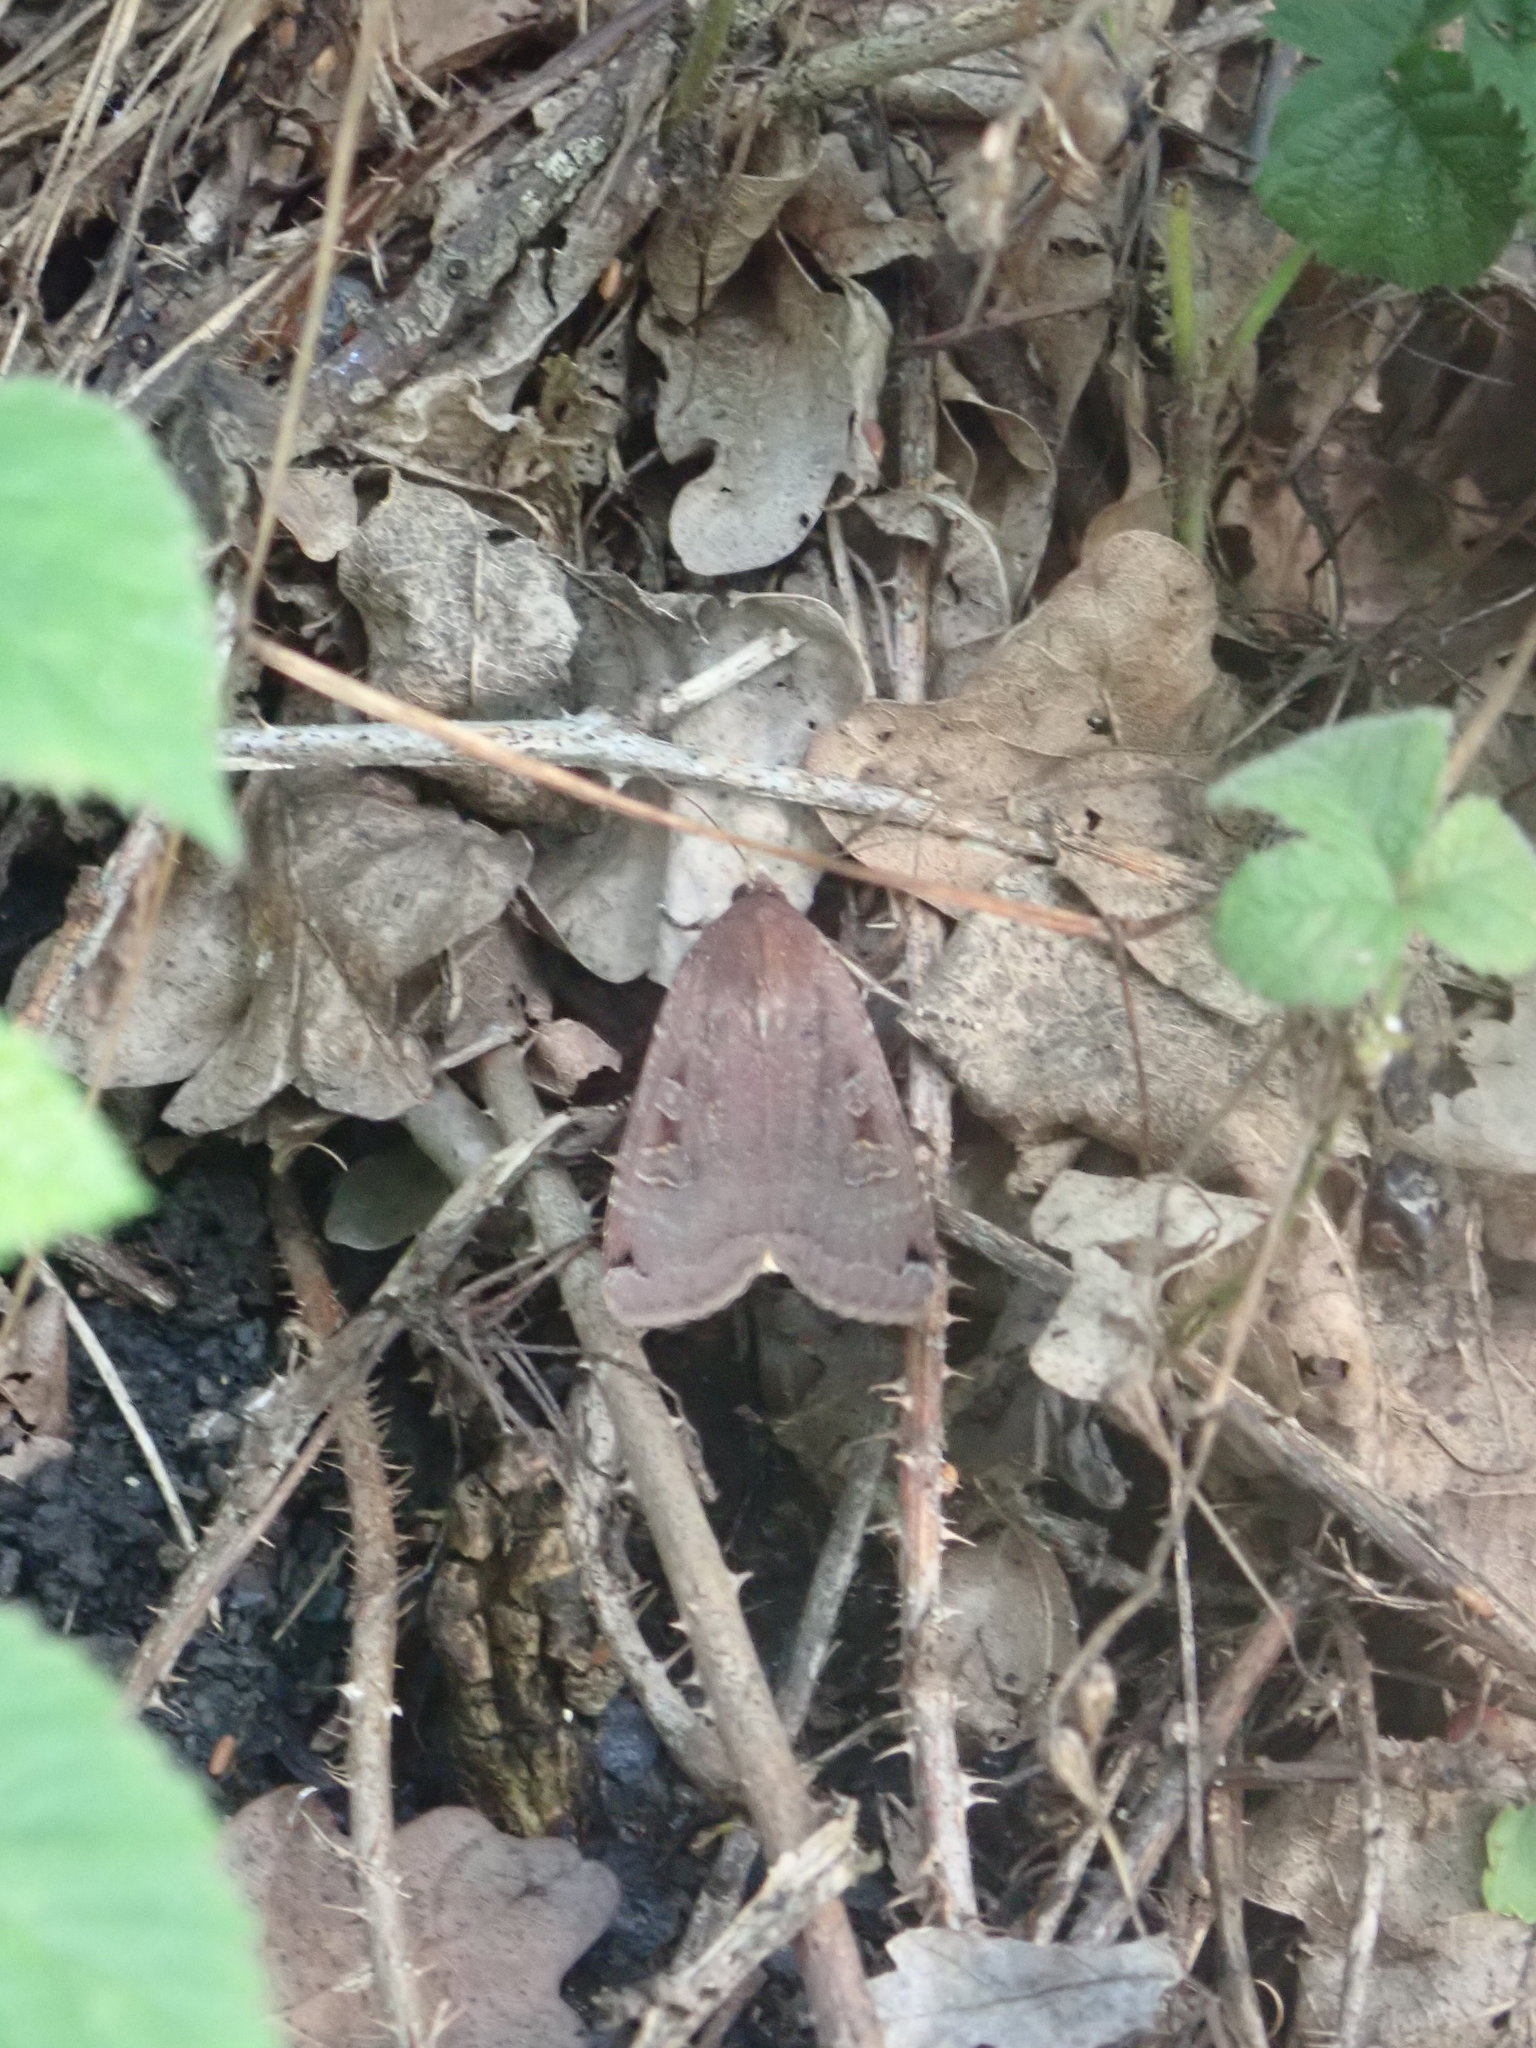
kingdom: Animalia
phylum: Arthropoda
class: Insecta
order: Lepidoptera
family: Noctuidae
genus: Noctua
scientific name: Noctua pronuba
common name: Large yellow underwing
